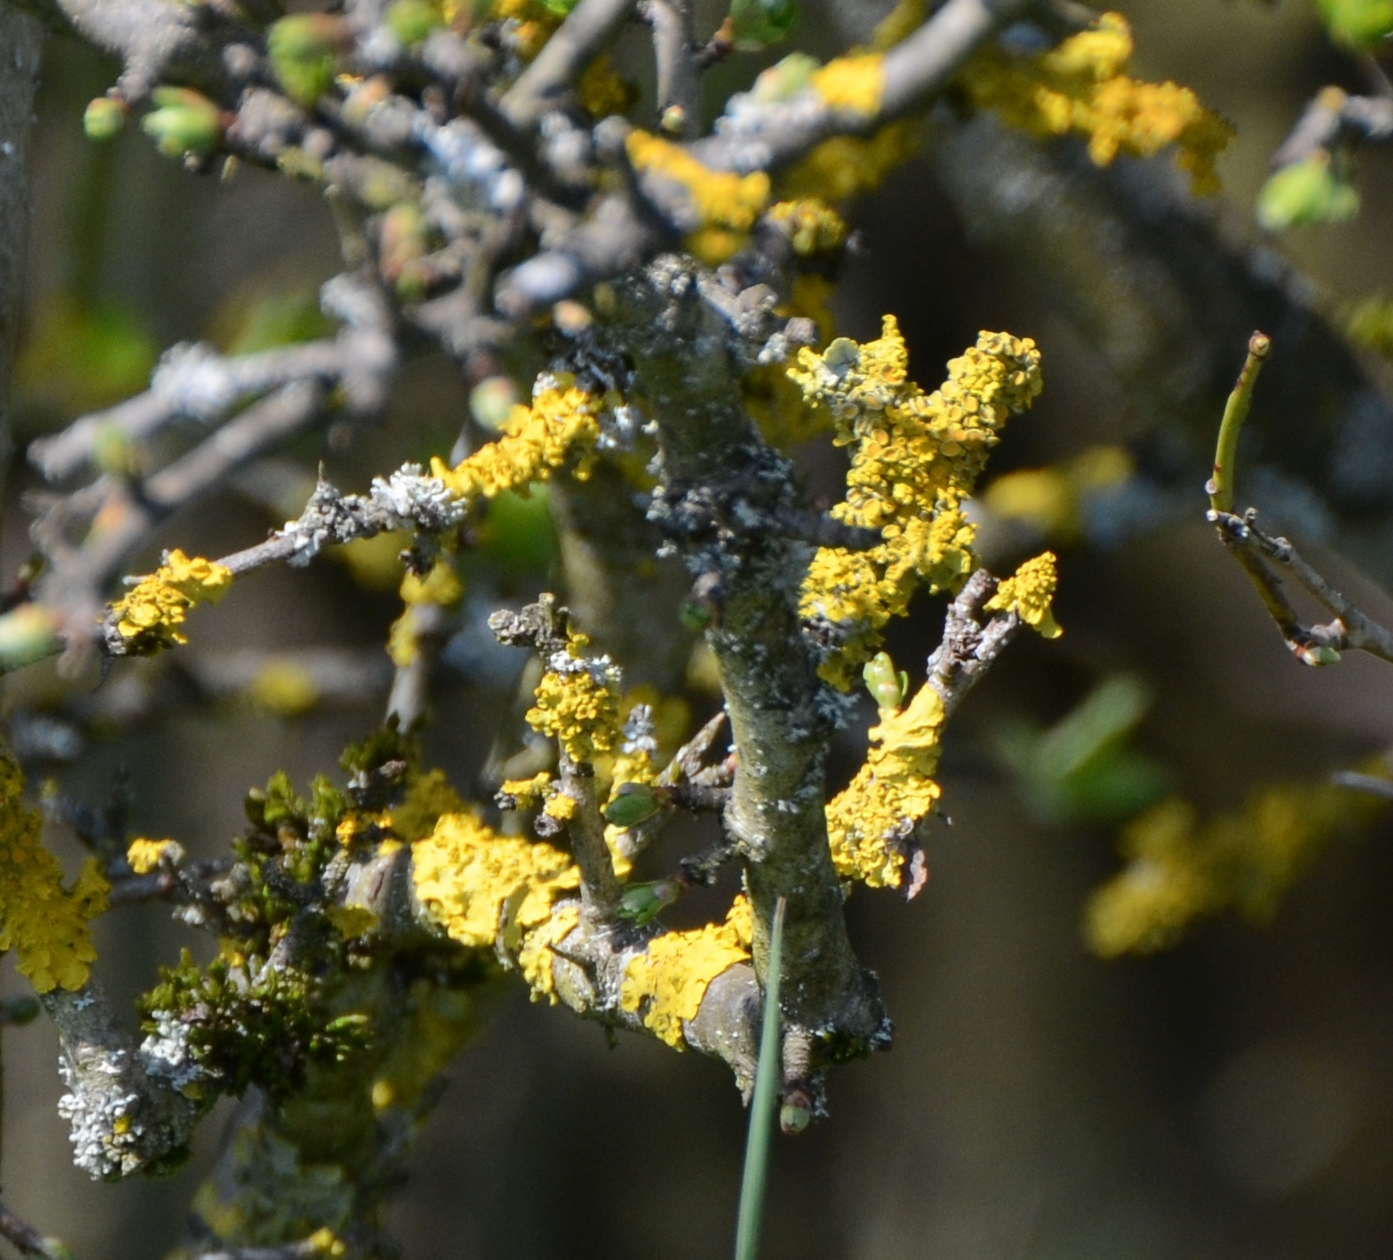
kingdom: Fungi
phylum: Ascomycota
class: Lecanoromycetes
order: Teloschistales
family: Teloschistaceae
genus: Xanthoria
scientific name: Xanthoria parietina
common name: Common orange lichen
